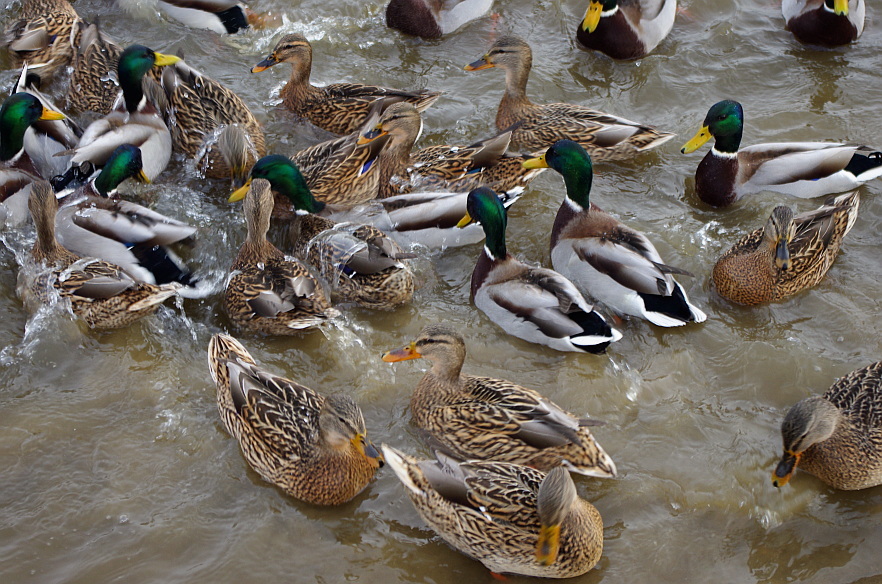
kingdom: Animalia
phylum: Chordata
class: Aves
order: Anseriformes
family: Anatidae
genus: Anas
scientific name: Anas platyrhynchos
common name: Mallard
